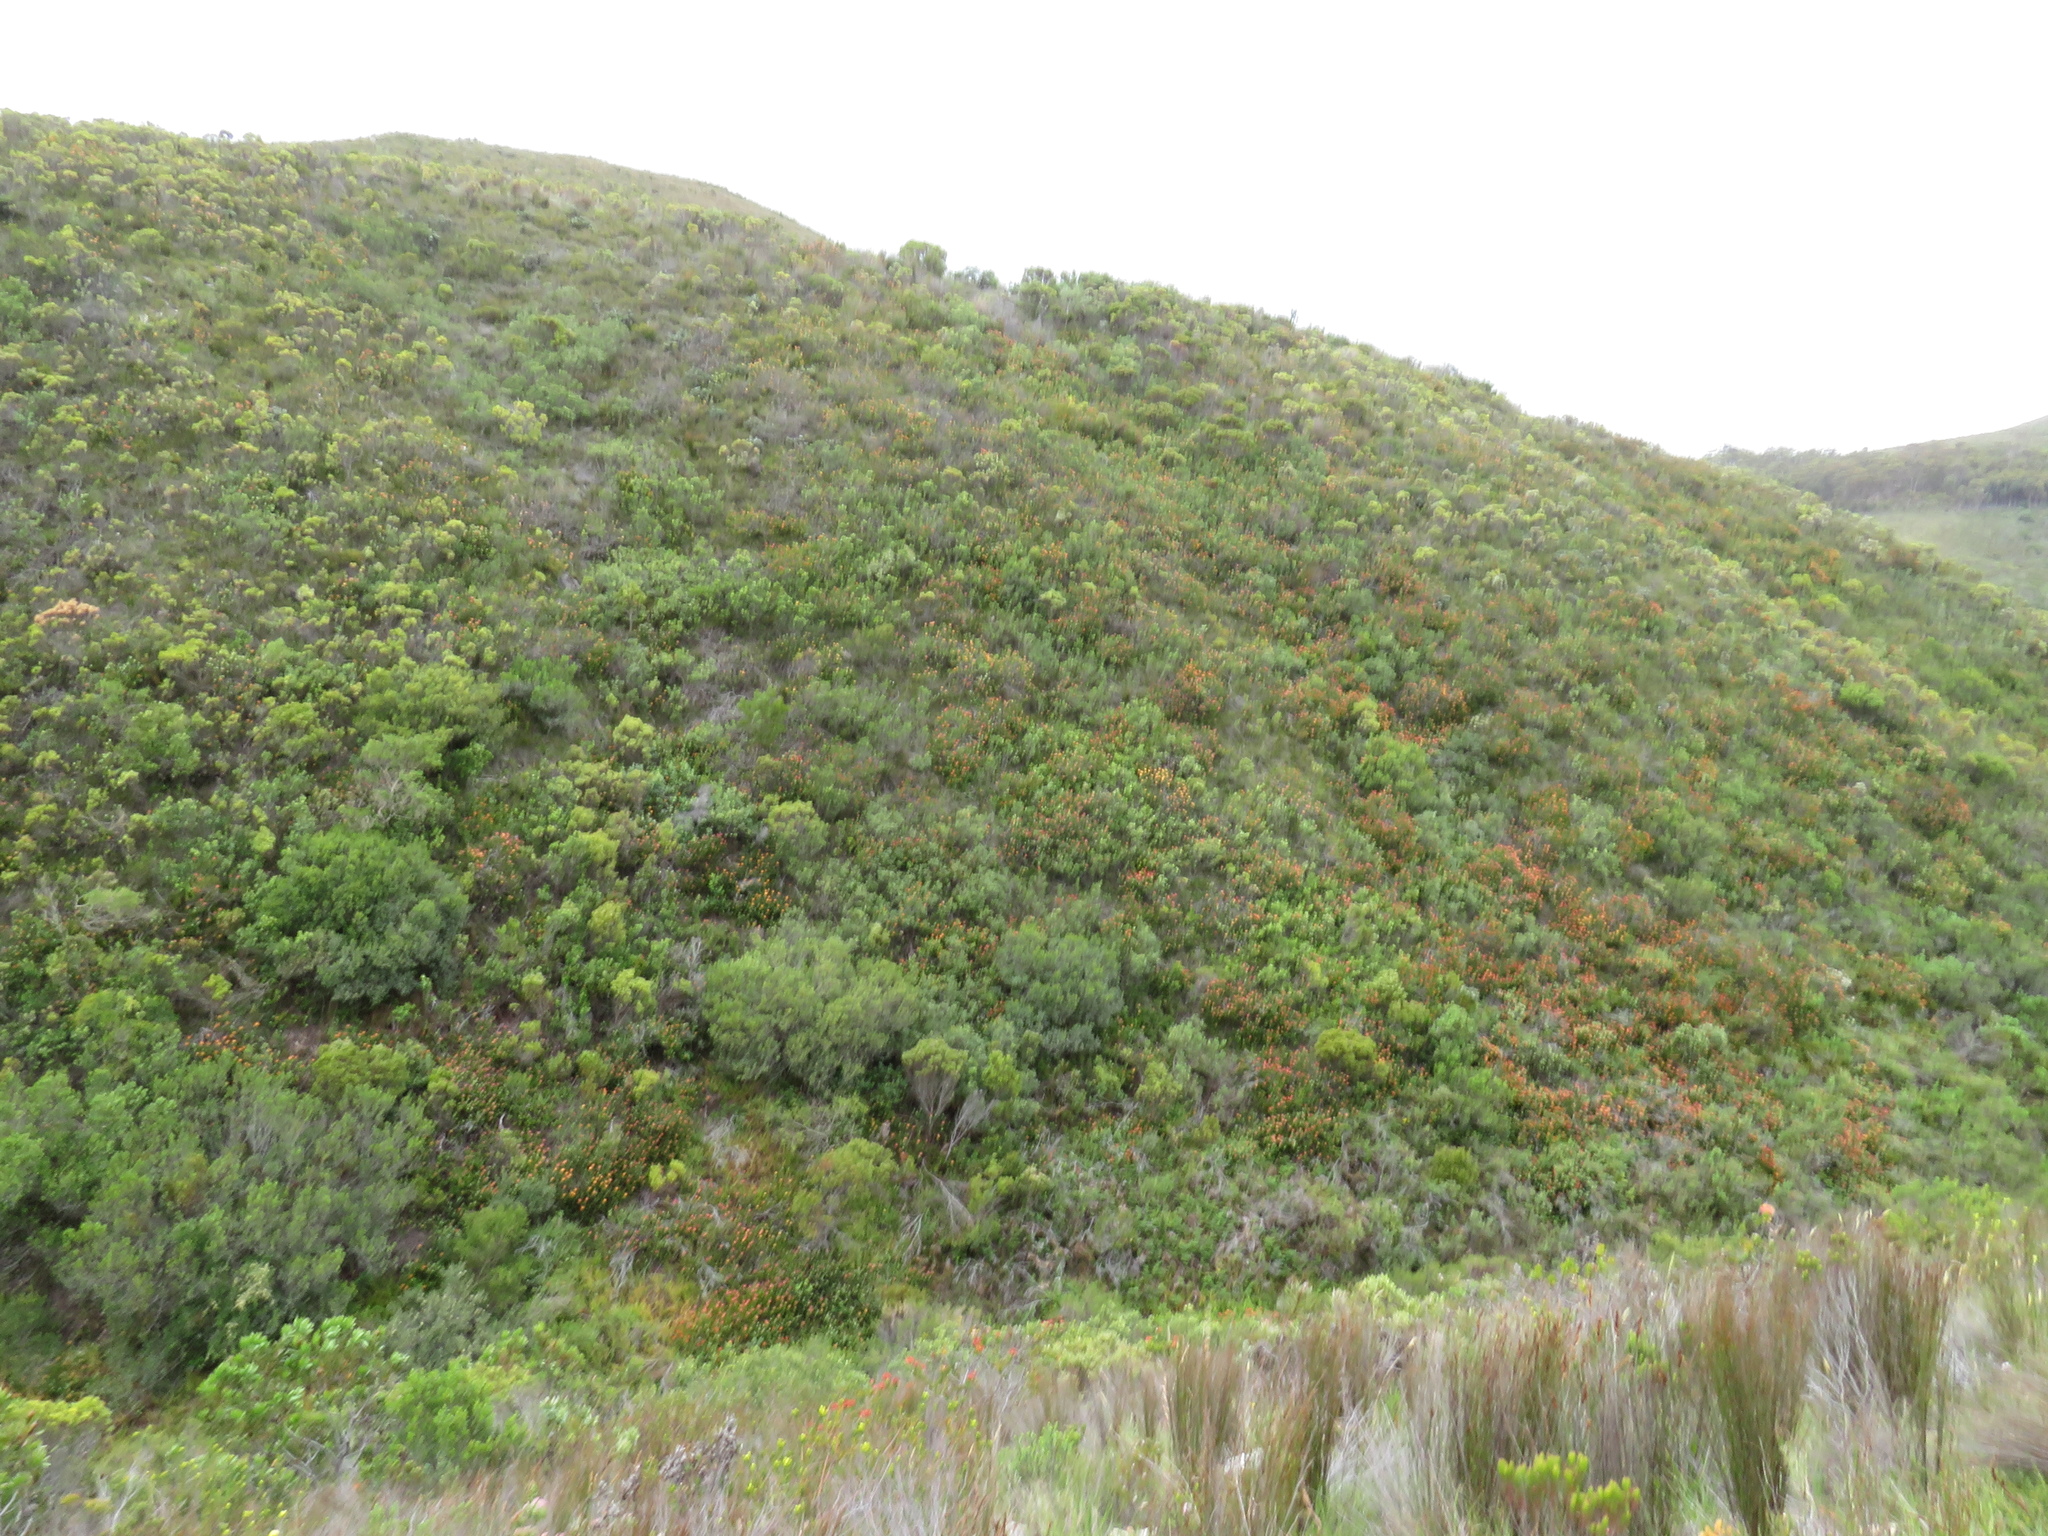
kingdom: Plantae
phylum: Tracheophyta
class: Magnoliopsida
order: Proteales
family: Proteaceae
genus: Leucospermum
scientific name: Leucospermum patersonii
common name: False tree pincushion
